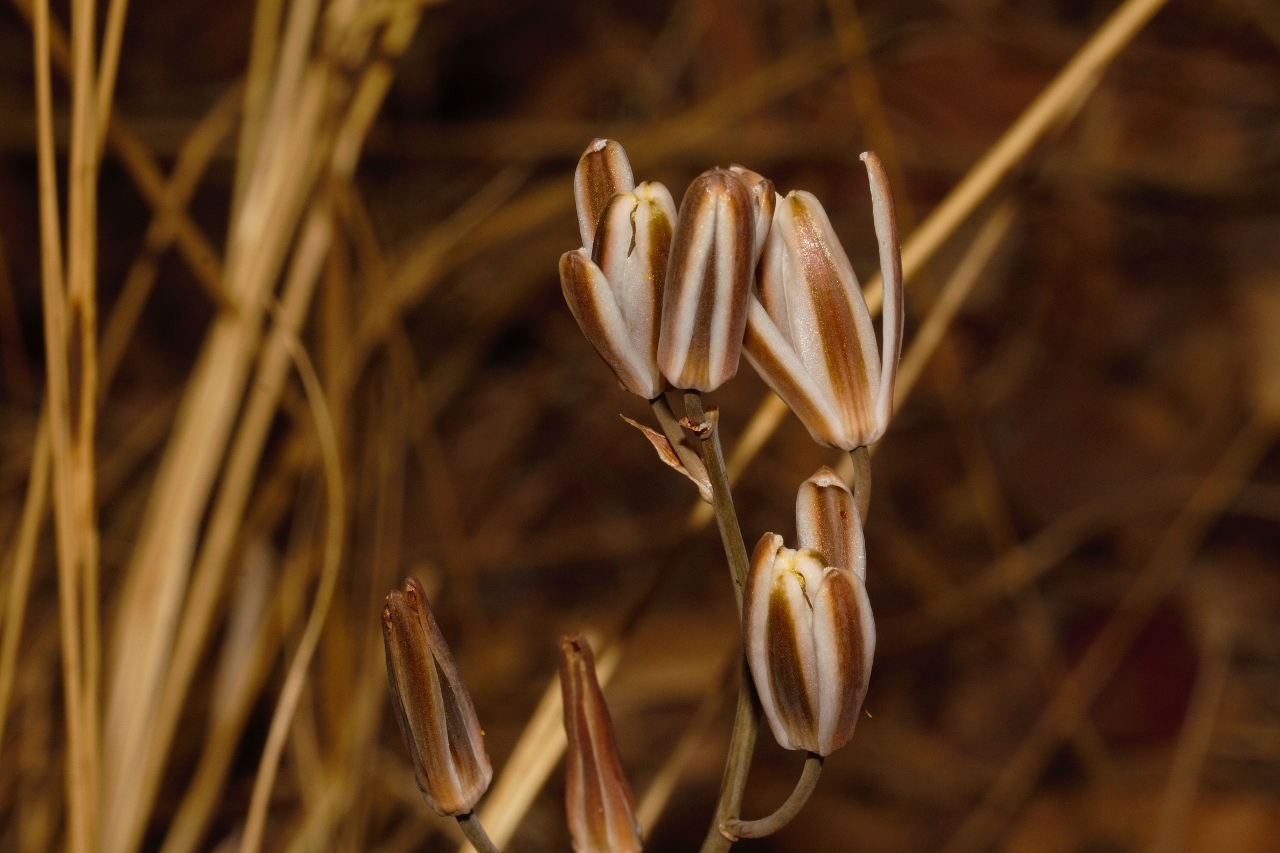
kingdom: Plantae
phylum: Tracheophyta
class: Liliopsida
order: Asparagales
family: Asparagaceae
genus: Albuca
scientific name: Albuca kirkii
